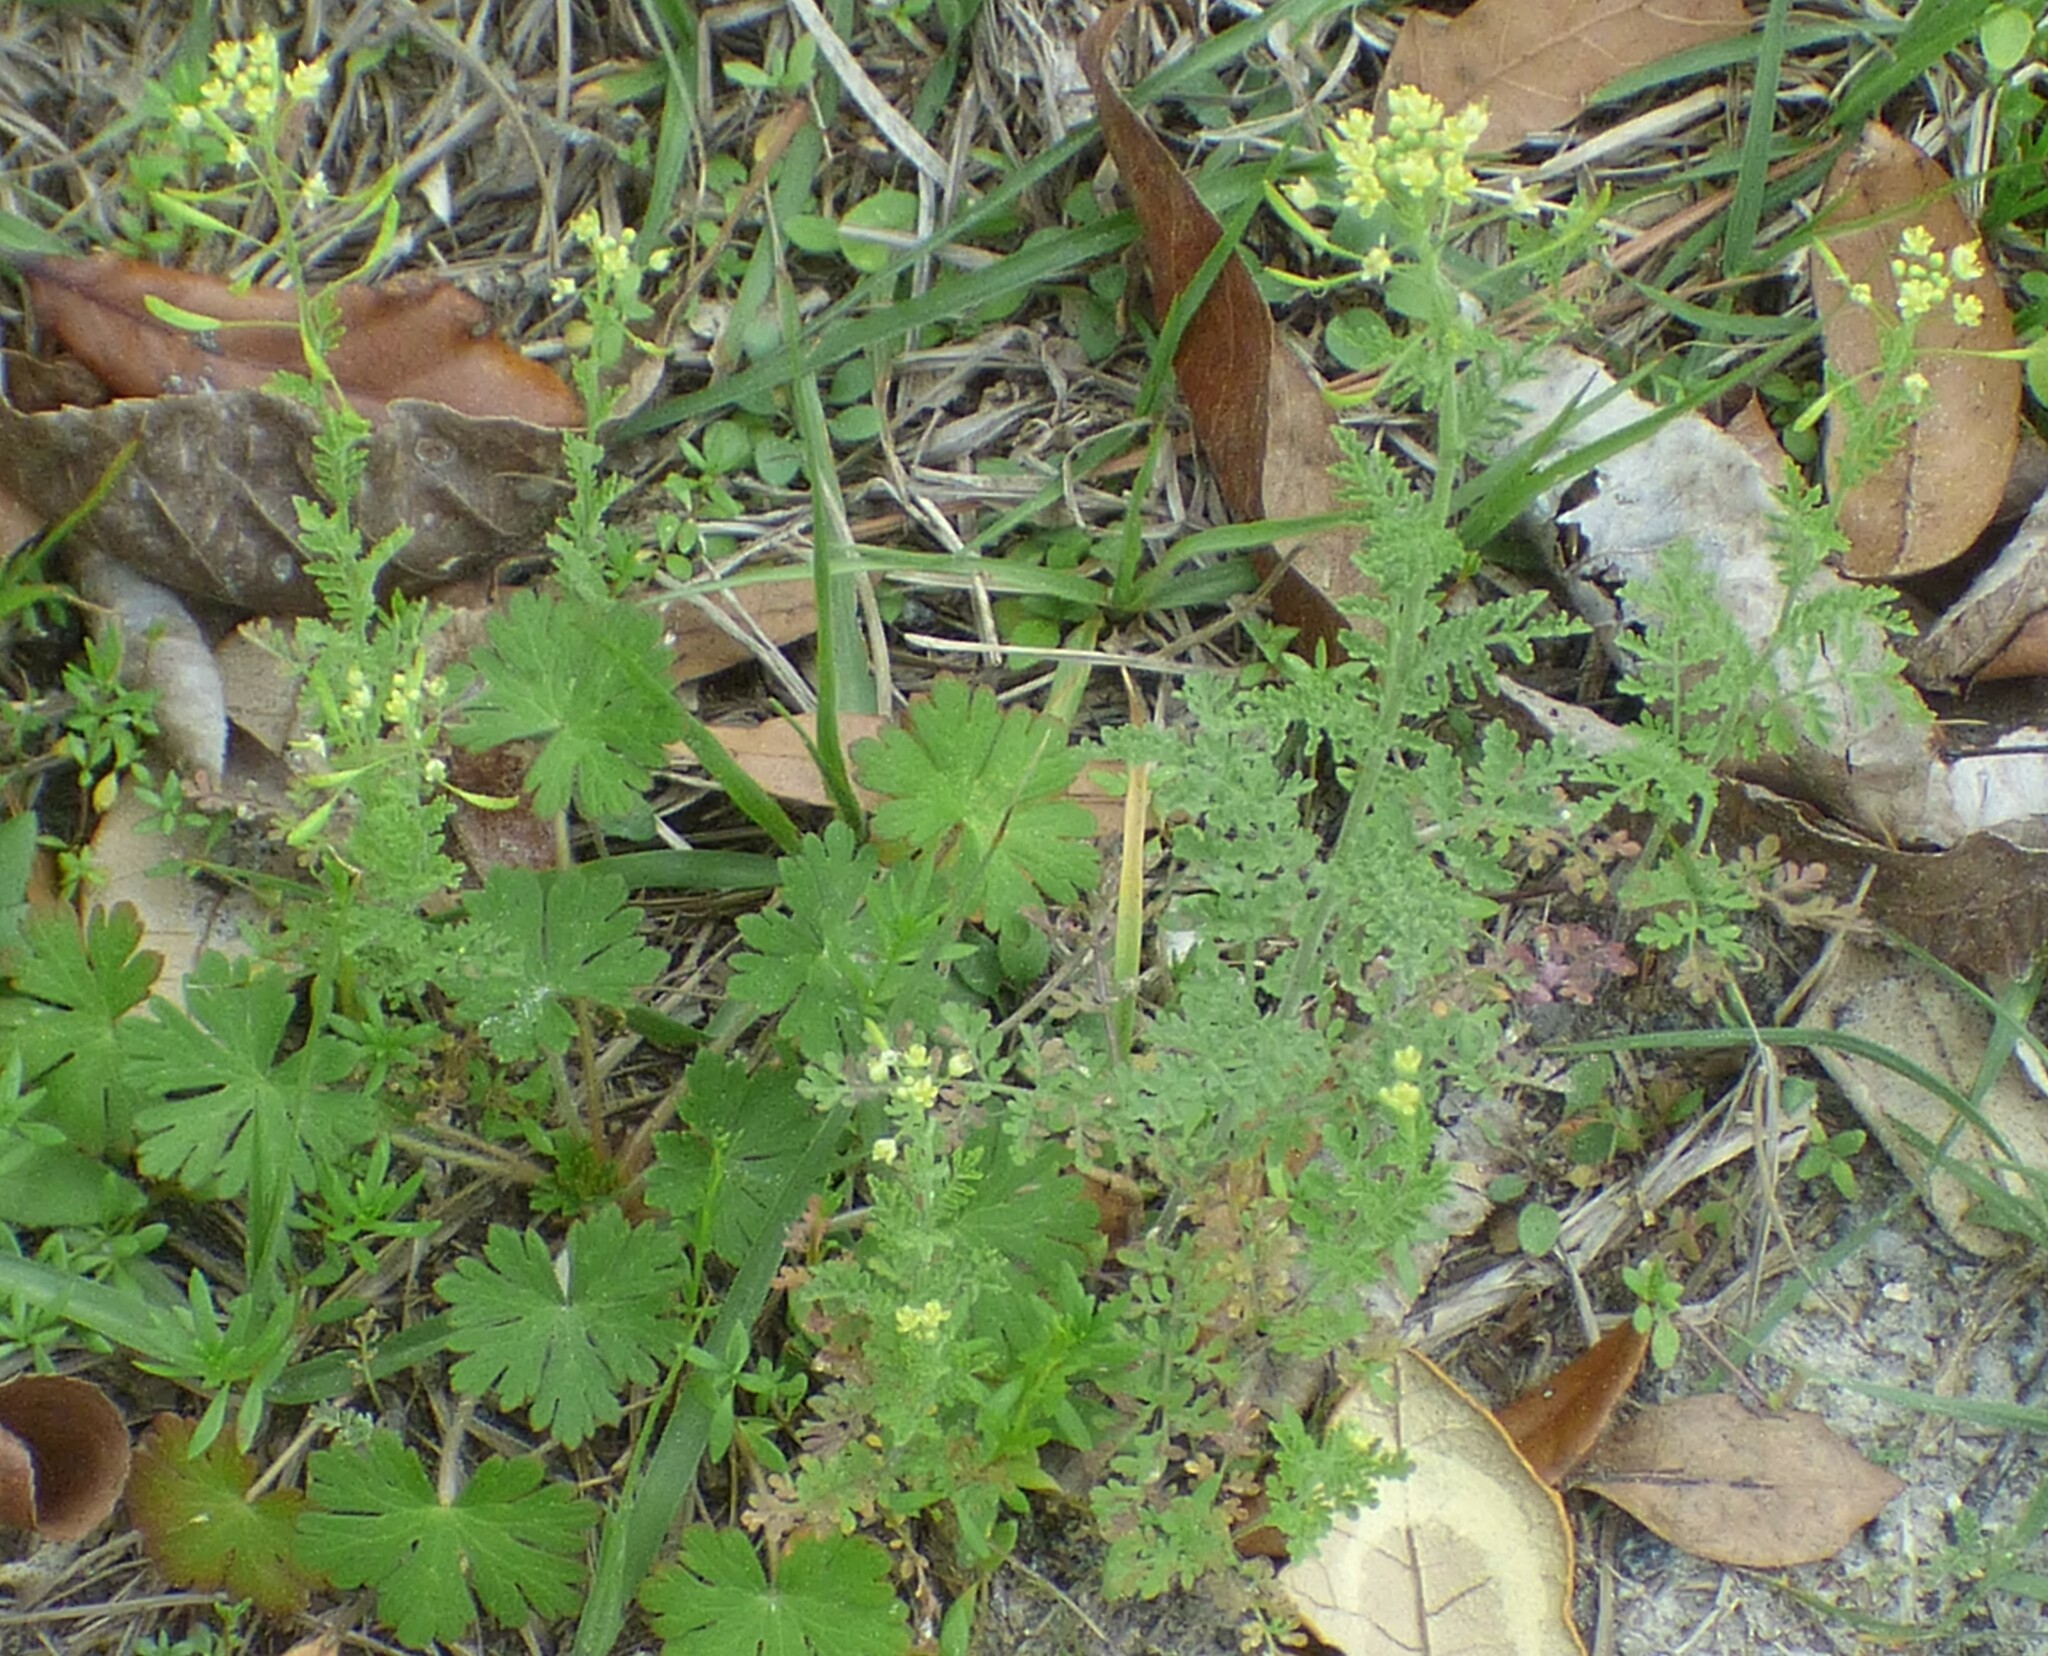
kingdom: Plantae
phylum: Tracheophyta
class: Magnoliopsida
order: Brassicales
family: Brassicaceae
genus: Descurainia
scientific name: Descurainia pinnata
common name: Western tansy mustard
